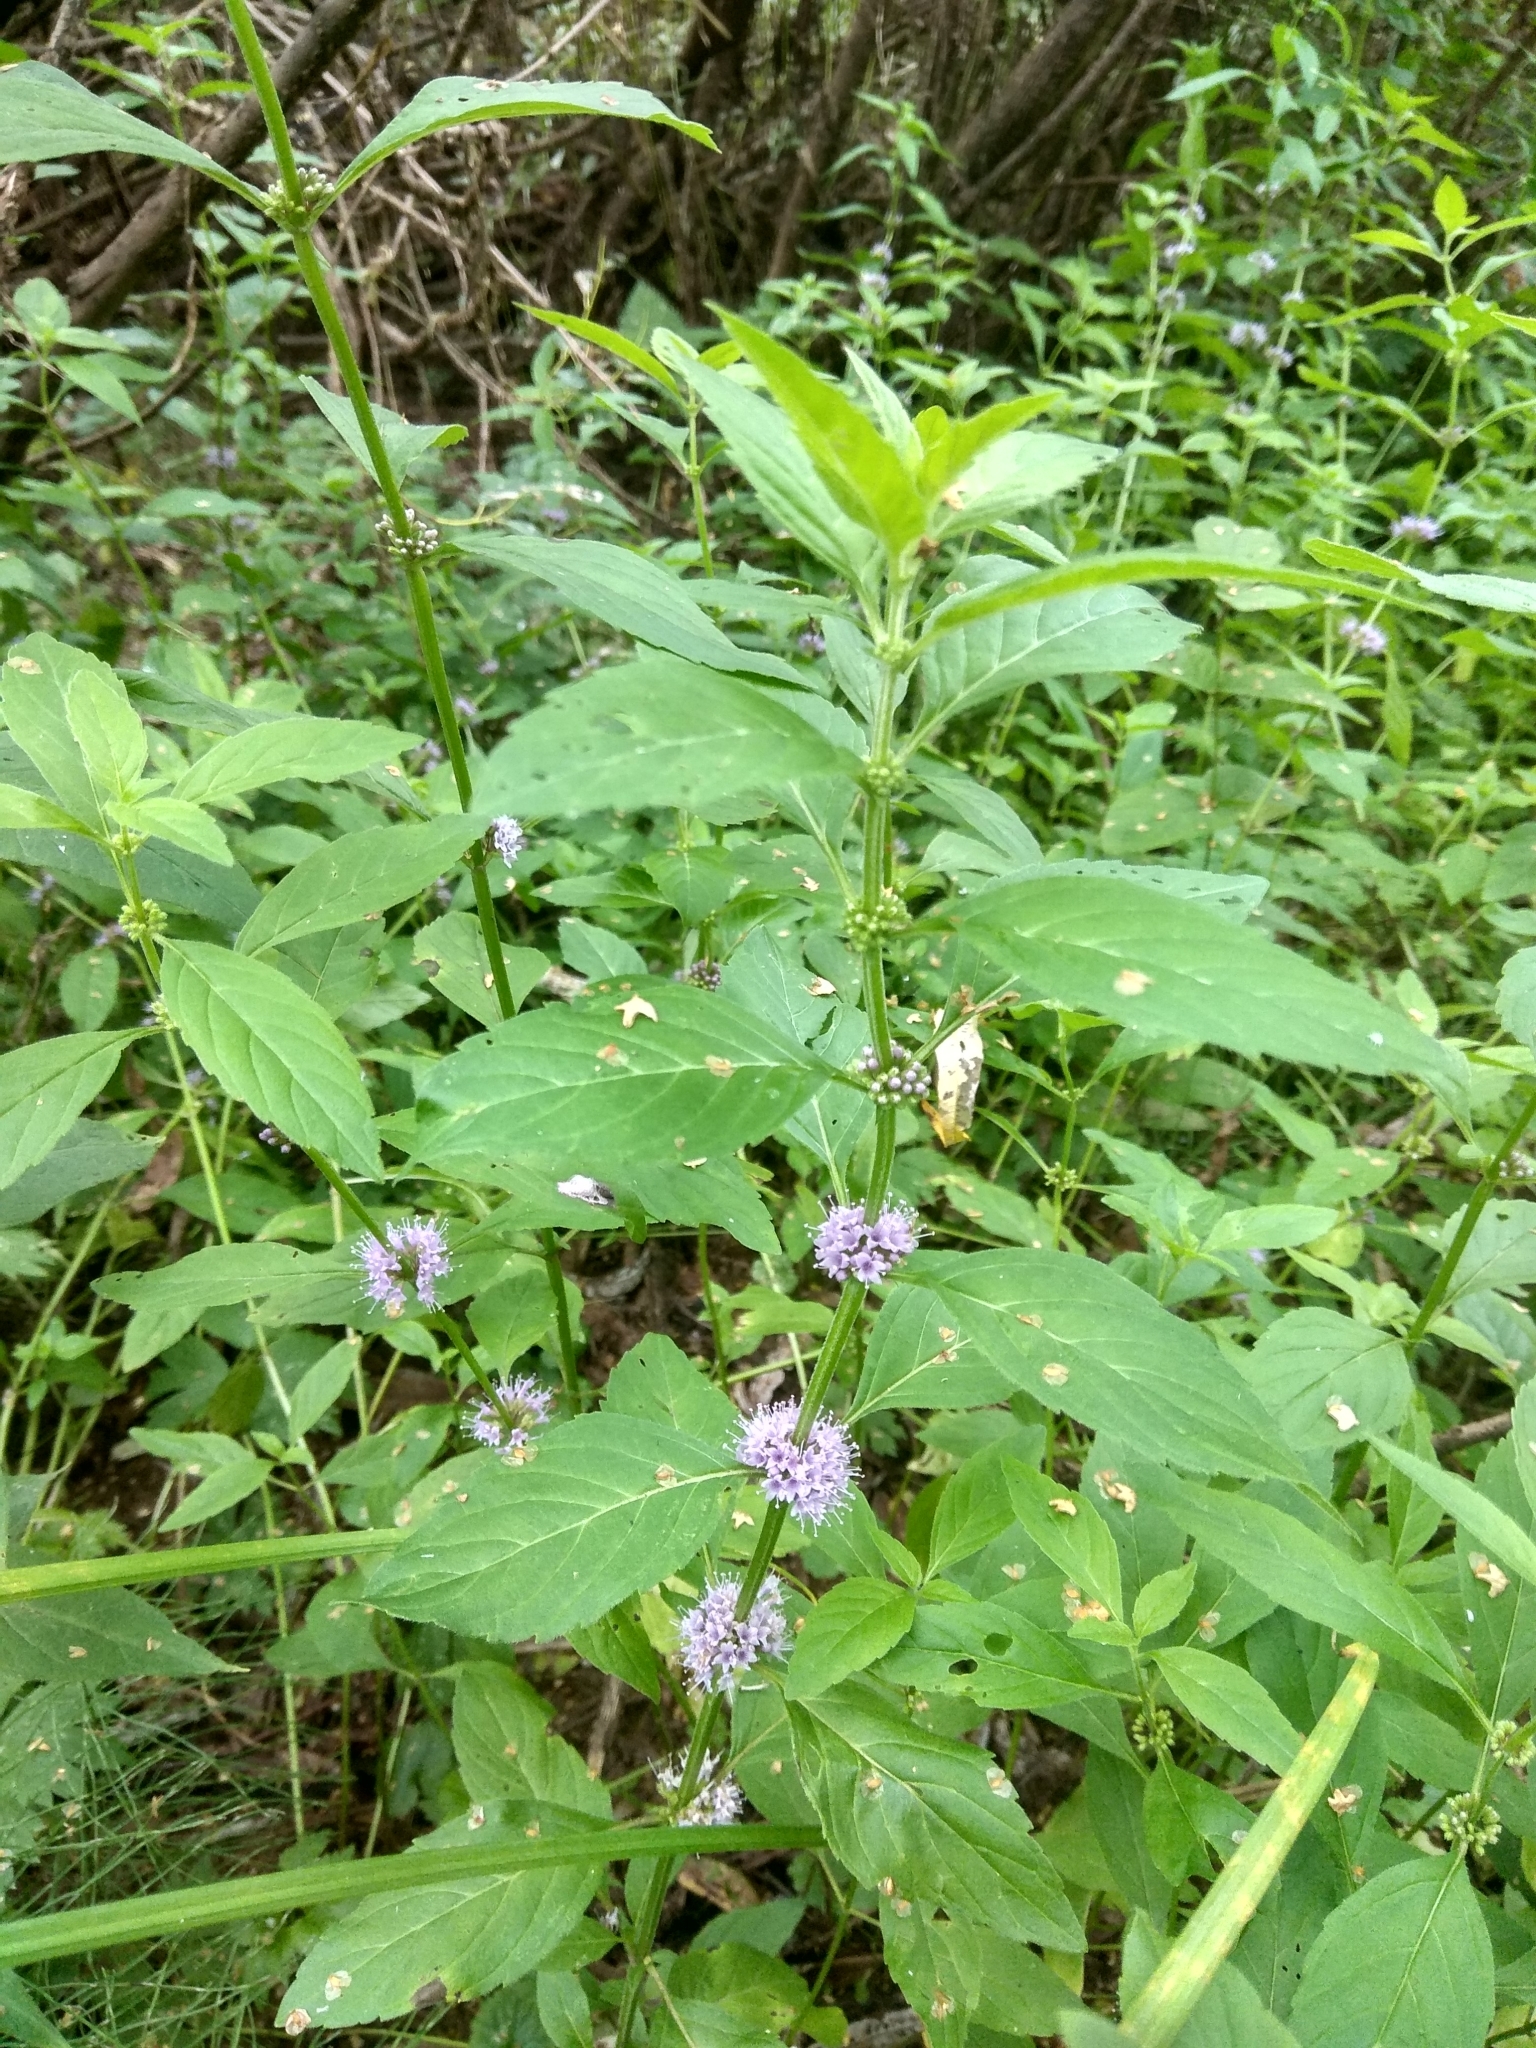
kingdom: Plantae
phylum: Tracheophyta
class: Magnoliopsida
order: Lamiales
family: Lamiaceae
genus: Mentha
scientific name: Mentha arvensis
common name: Corn mint
